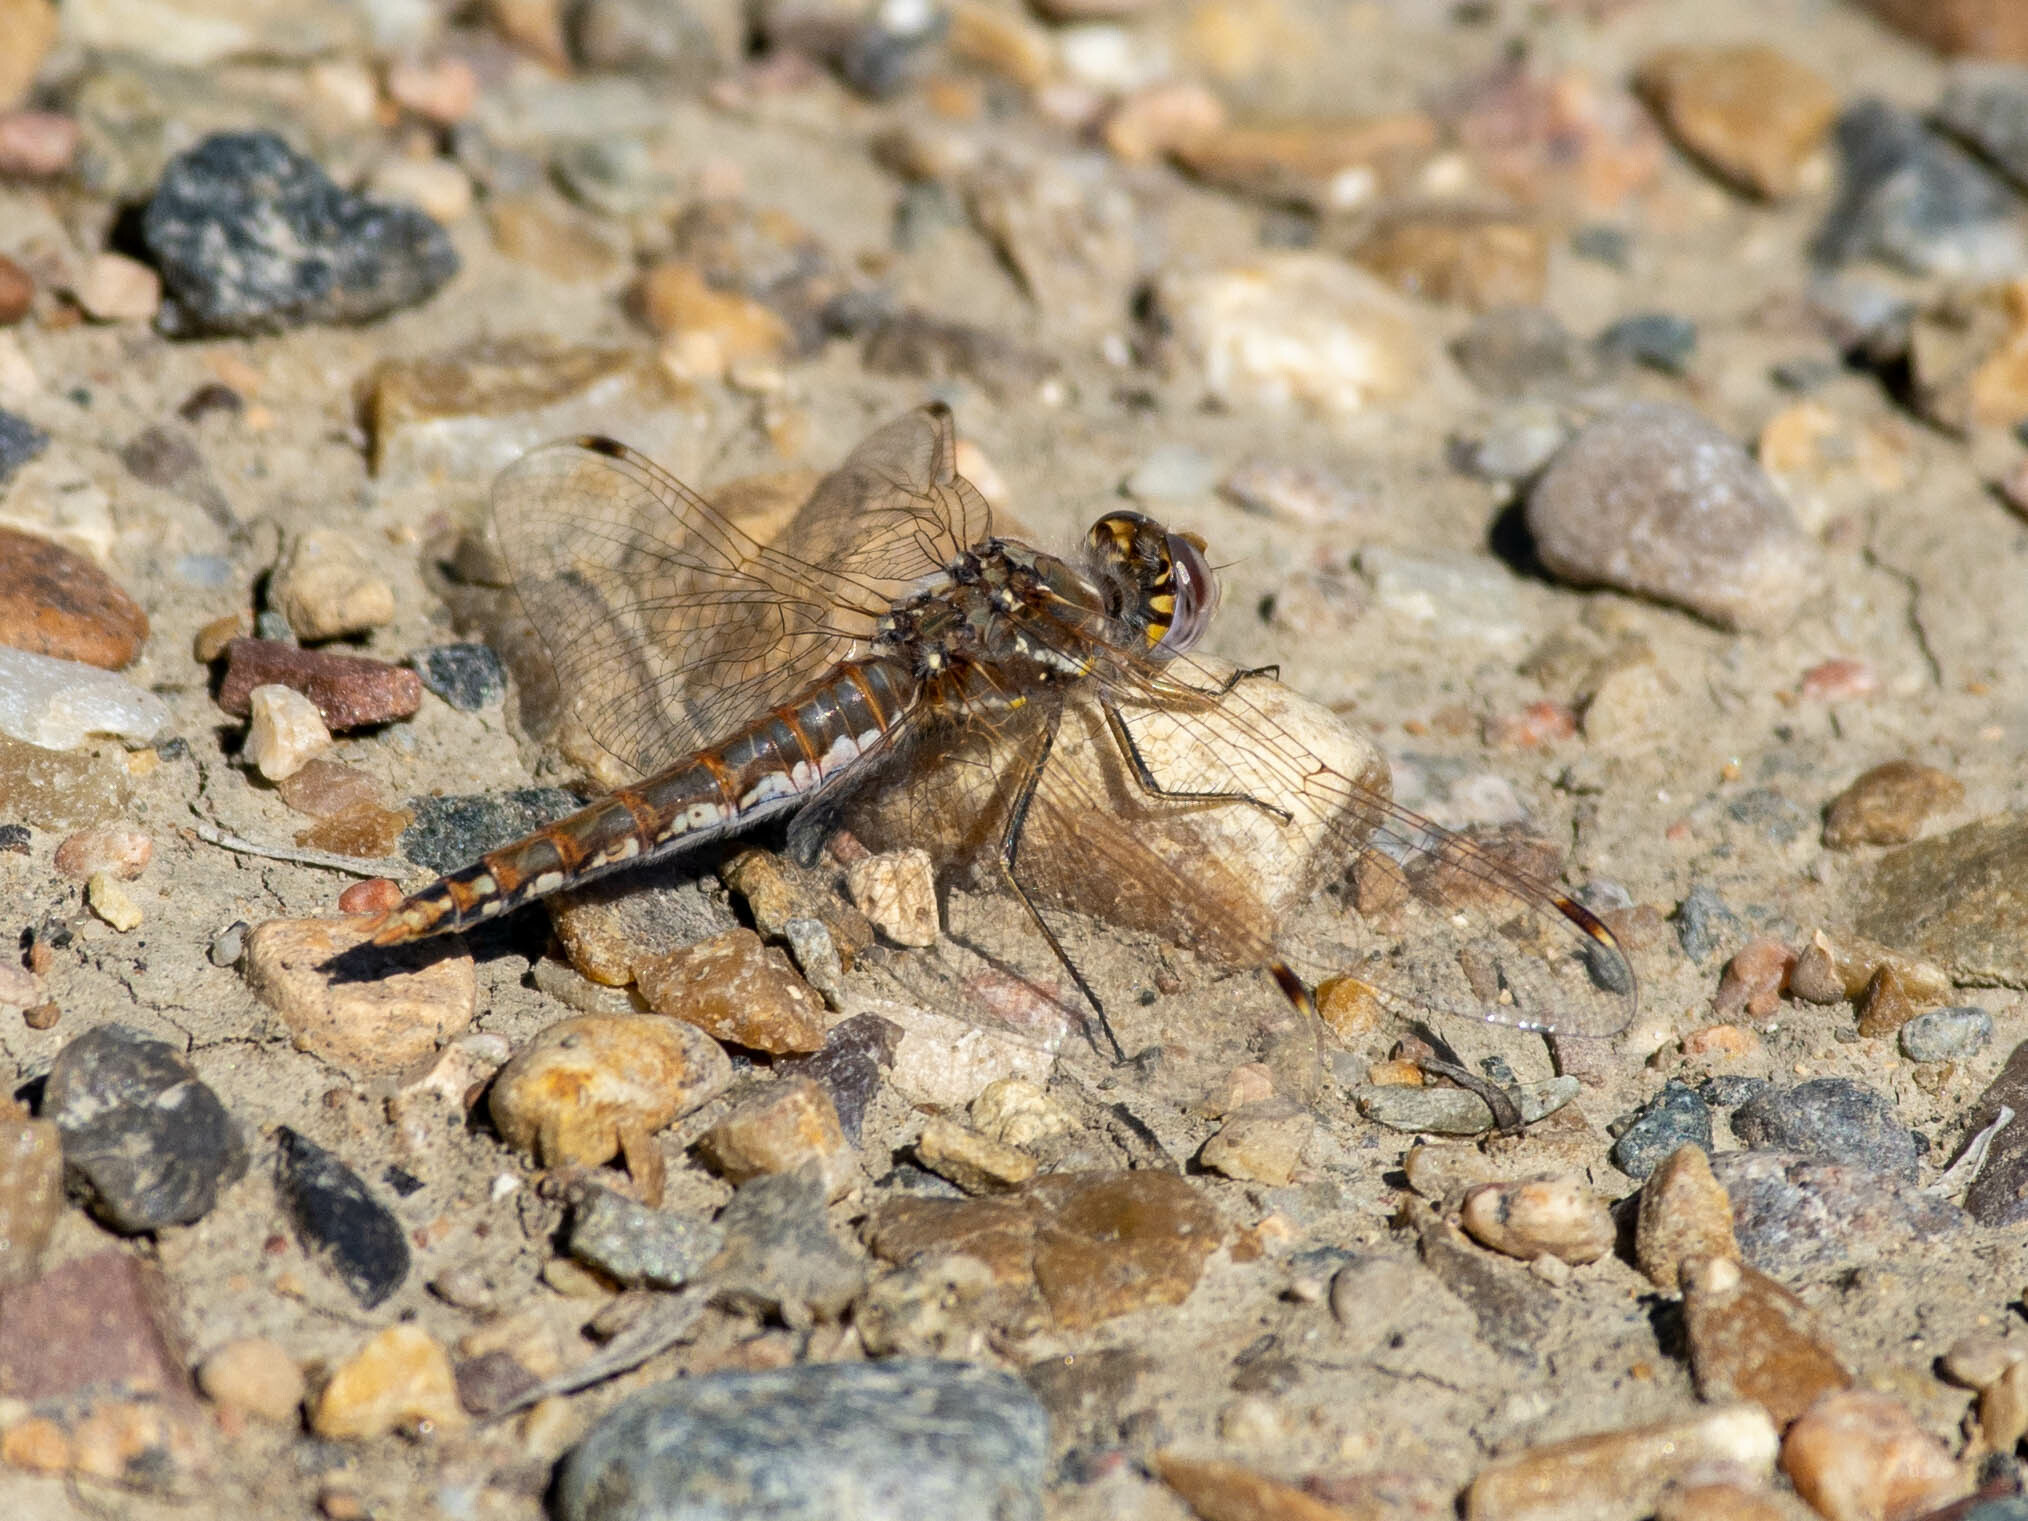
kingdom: Animalia
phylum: Arthropoda
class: Insecta
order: Odonata
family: Libellulidae
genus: Sympetrum
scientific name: Sympetrum corruptum
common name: Variegated meadowhawk
